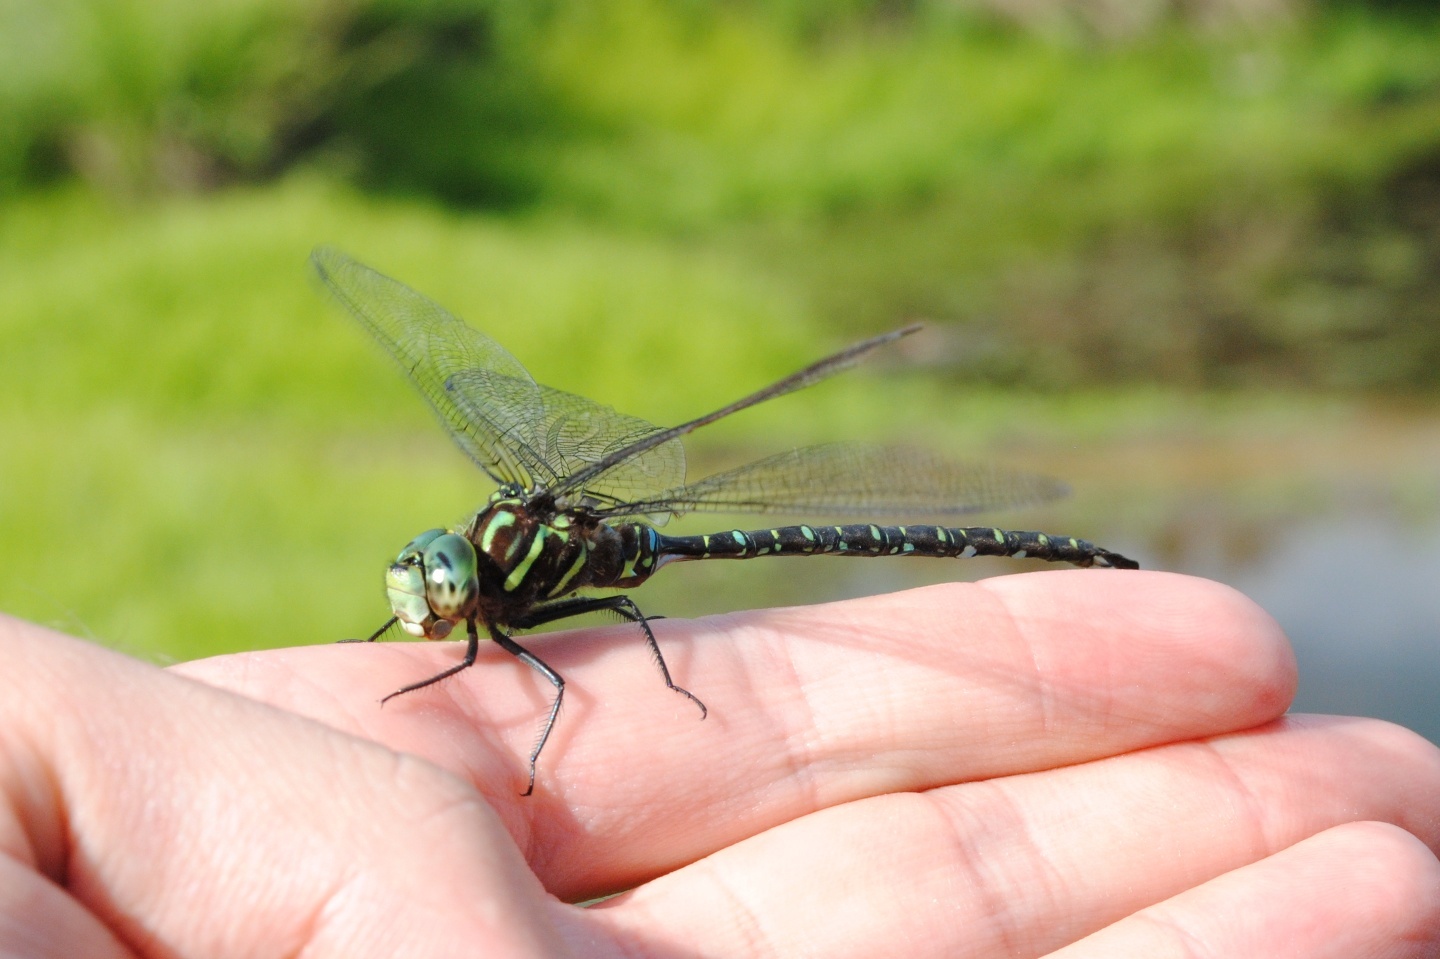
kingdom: Animalia
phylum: Arthropoda
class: Insecta
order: Odonata
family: Aeshnidae
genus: Aeshna
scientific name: Aeshna umbrosa
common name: Shadow darner
